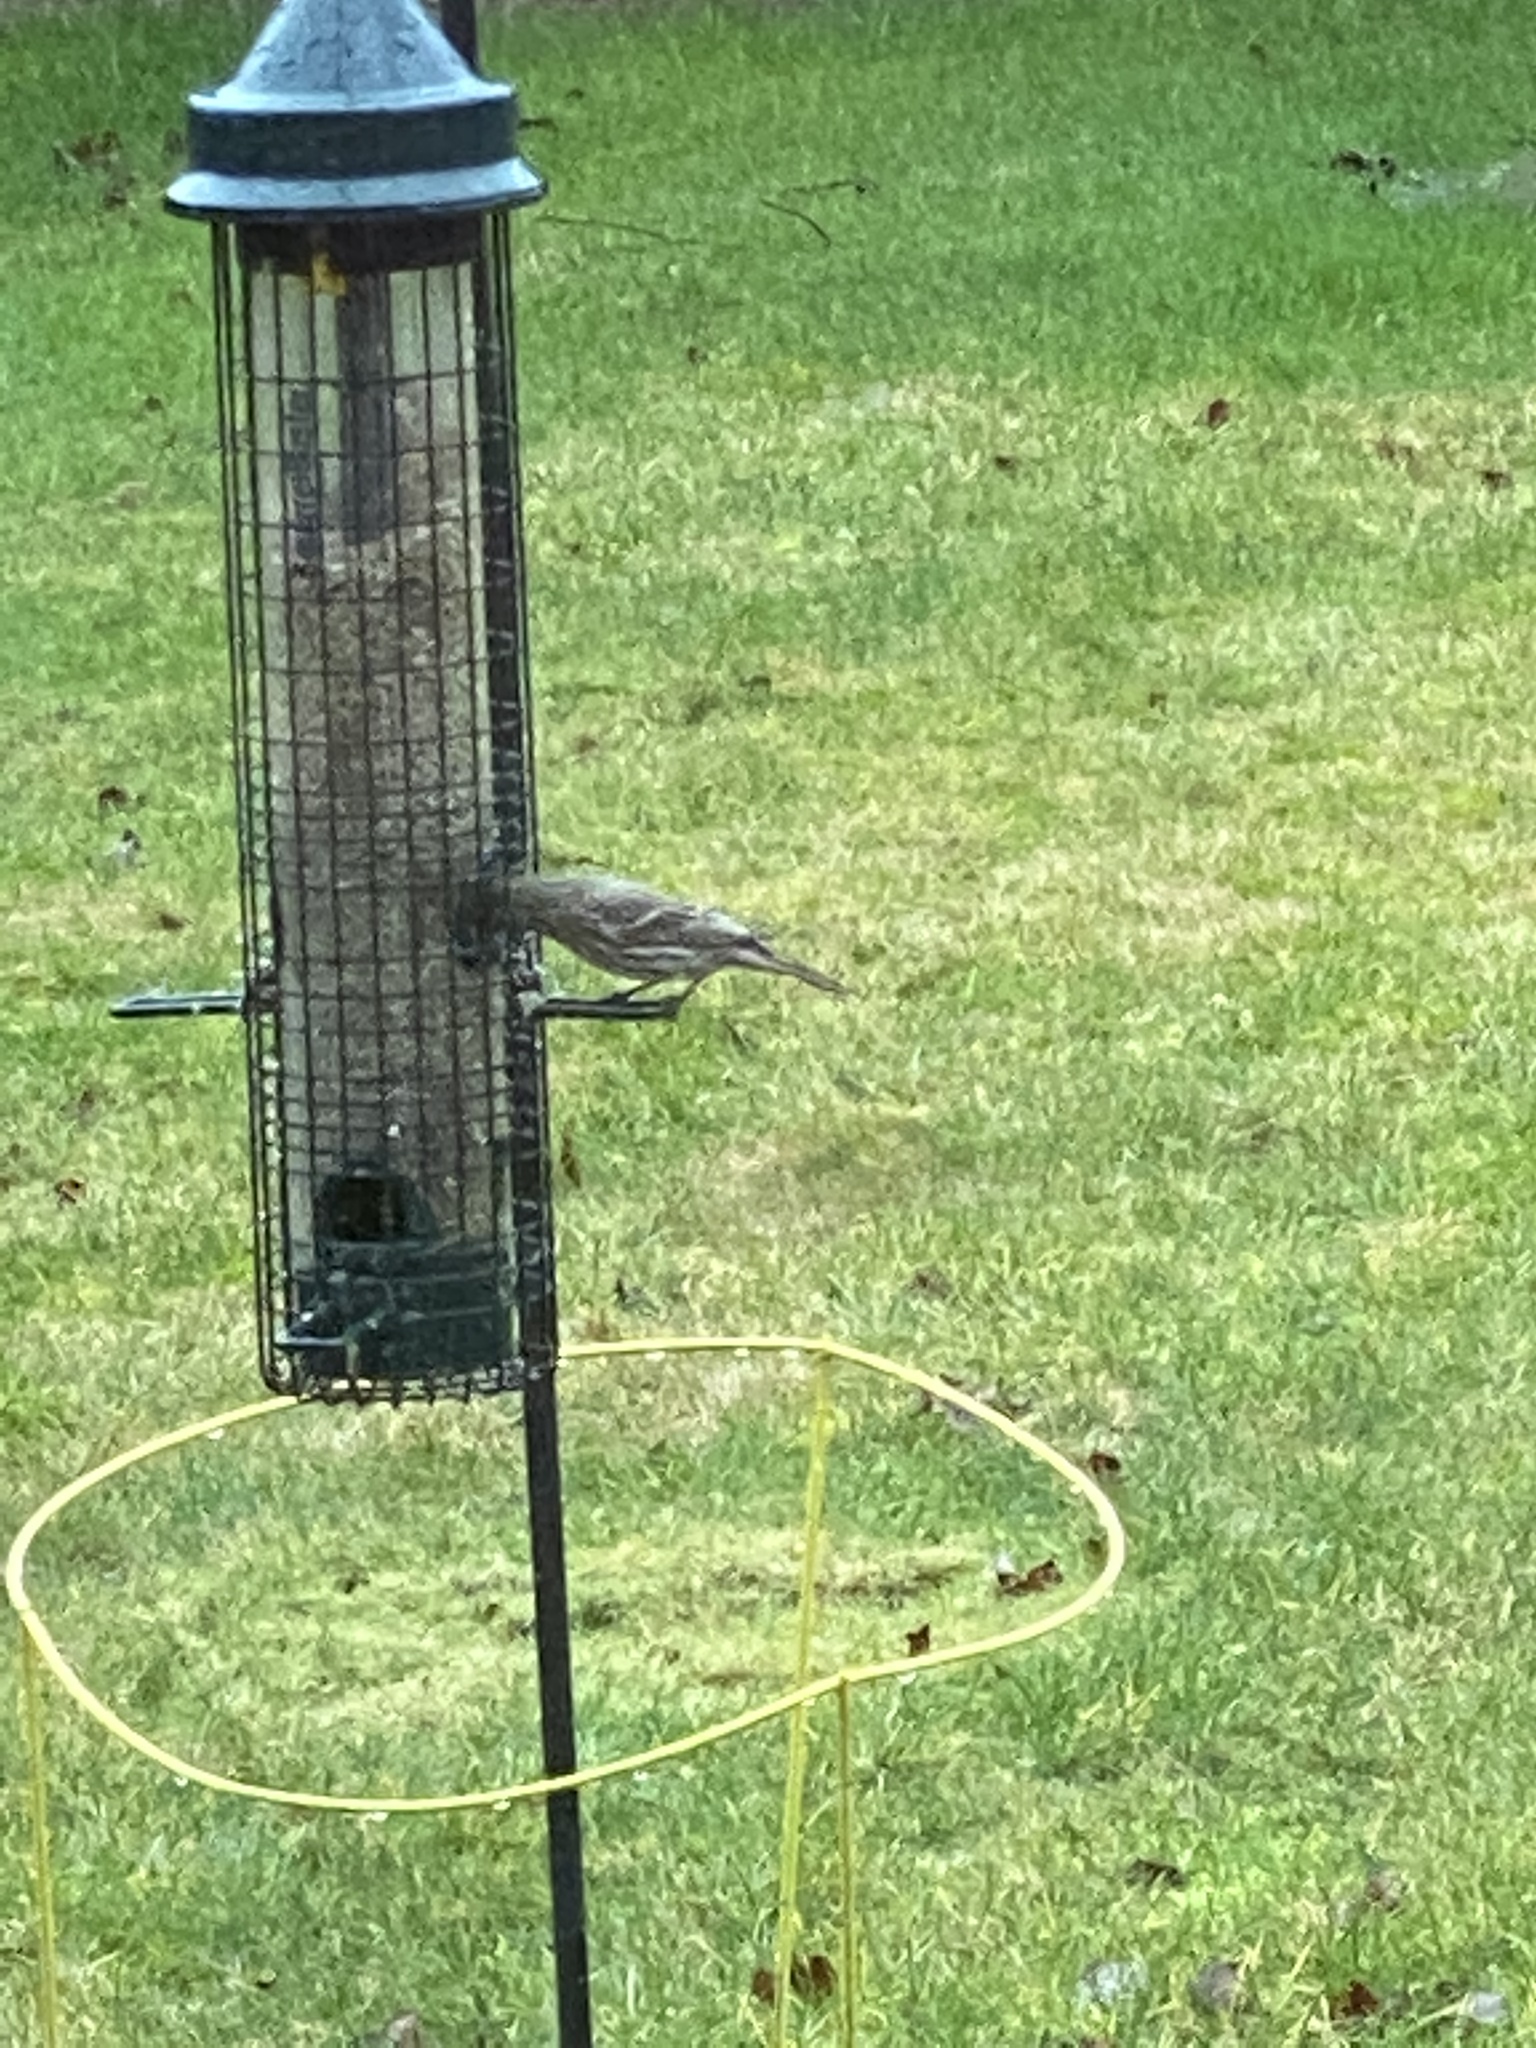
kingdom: Animalia
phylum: Chordata
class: Aves
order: Passeriformes
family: Fringillidae
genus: Spinus
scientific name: Spinus pinus
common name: Pine siskin
